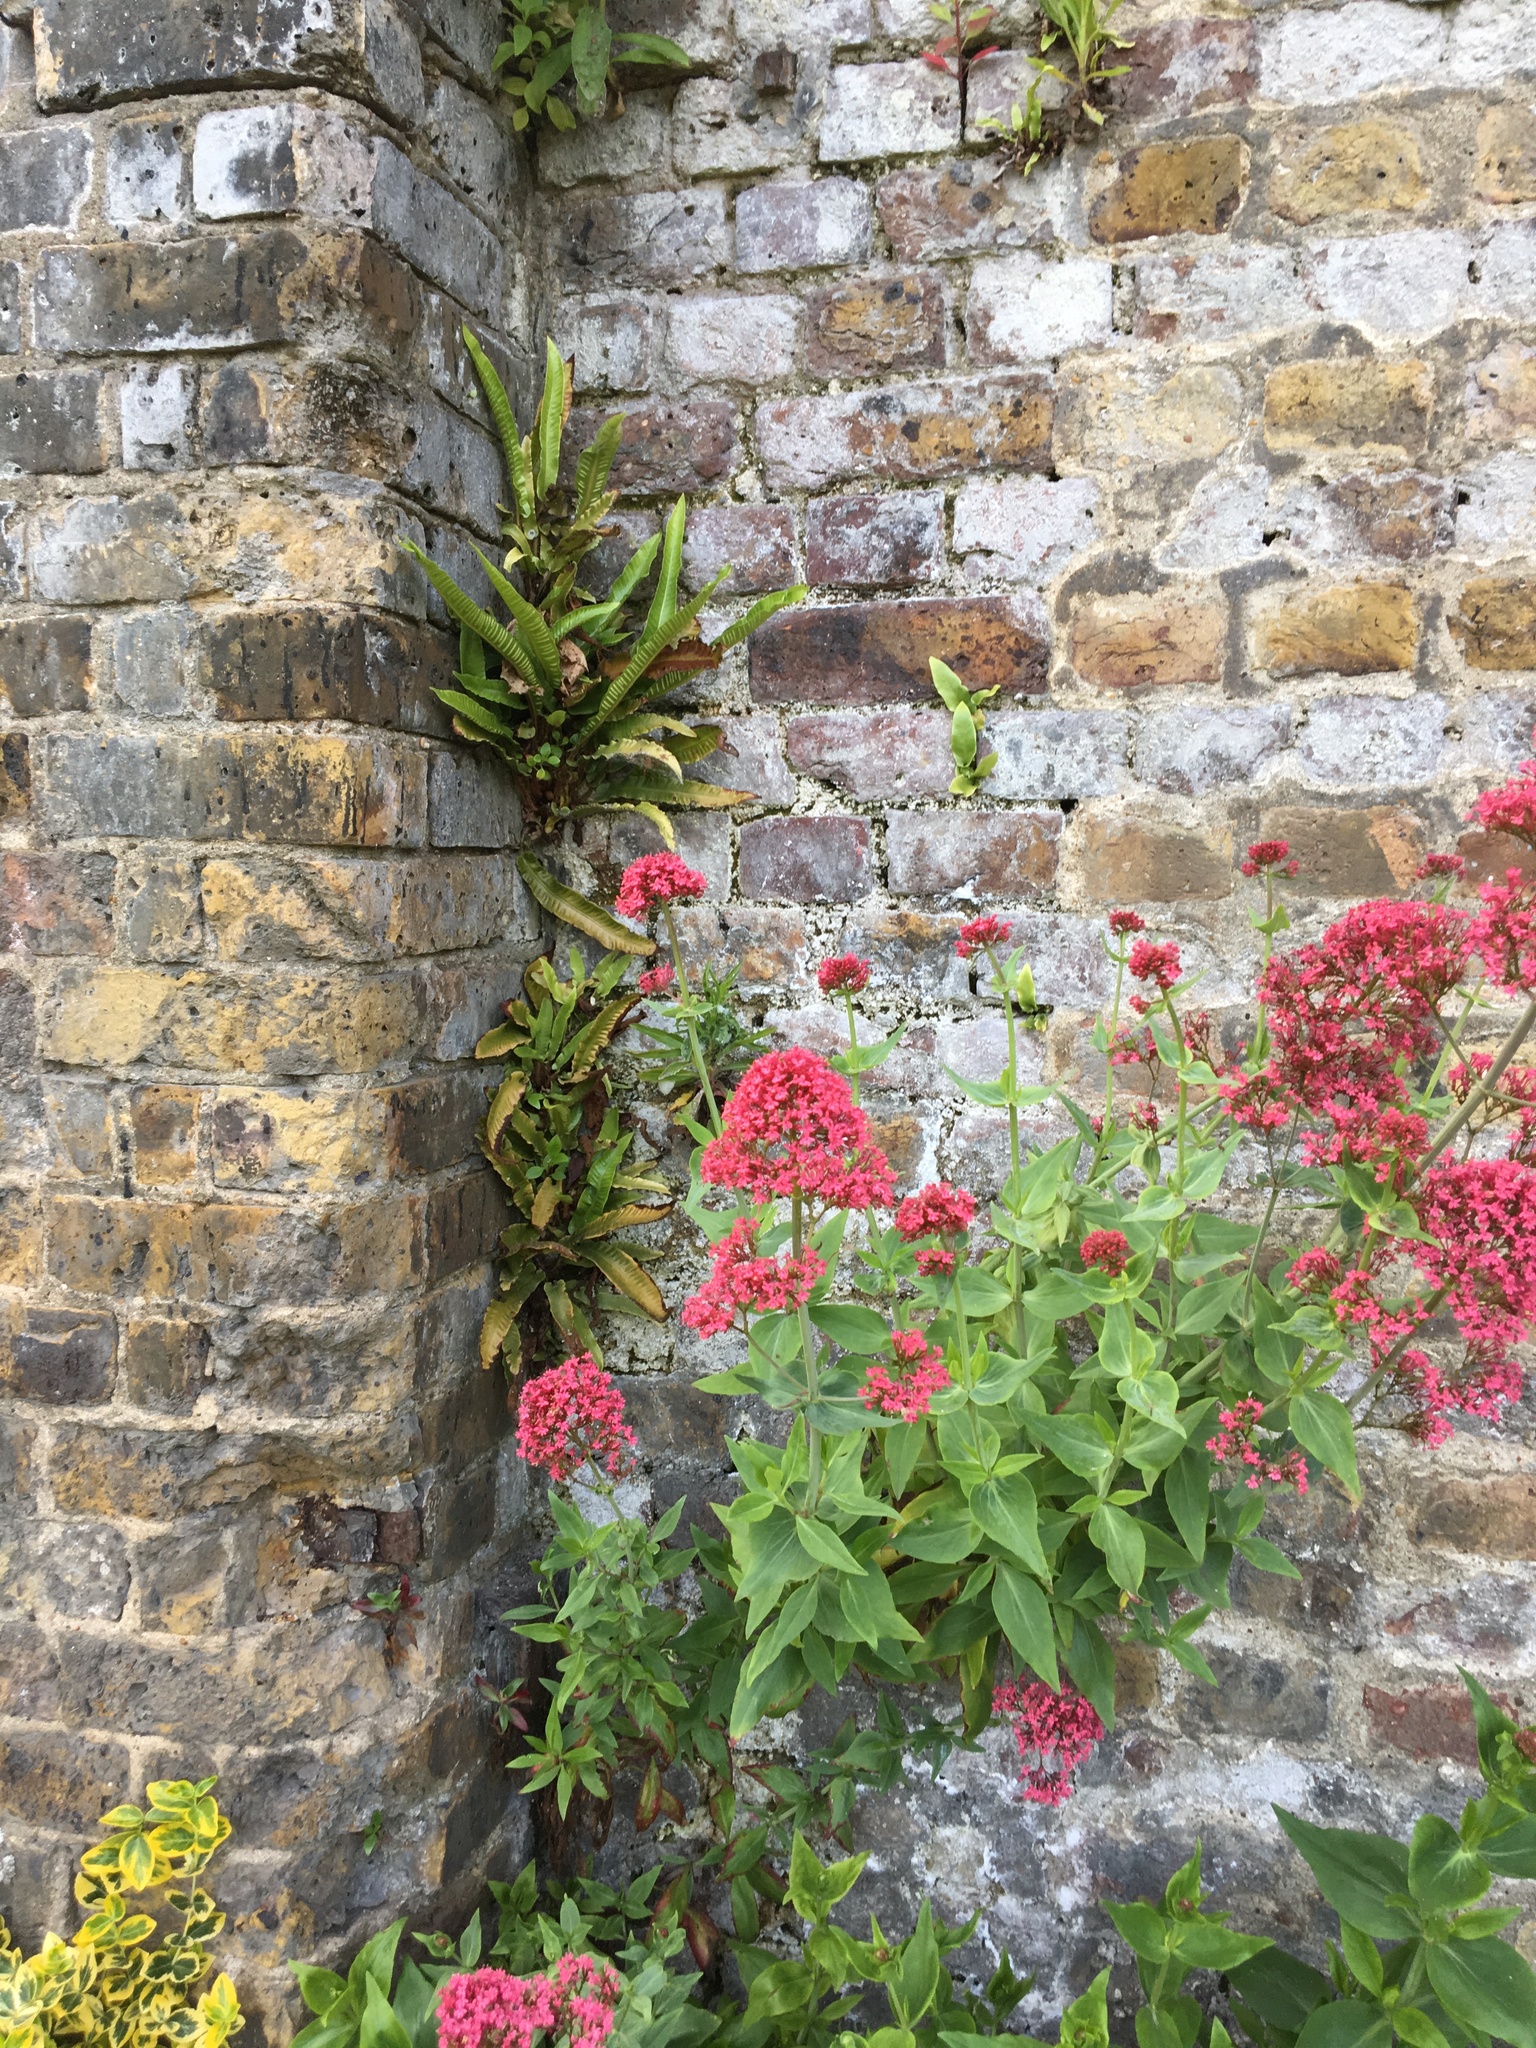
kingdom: Plantae
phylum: Tracheophyta
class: Magnoliopsida
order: Dipsacales
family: Caprifoliaceae
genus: Centranthus
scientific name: Centranthus ruber
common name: Red valerian
